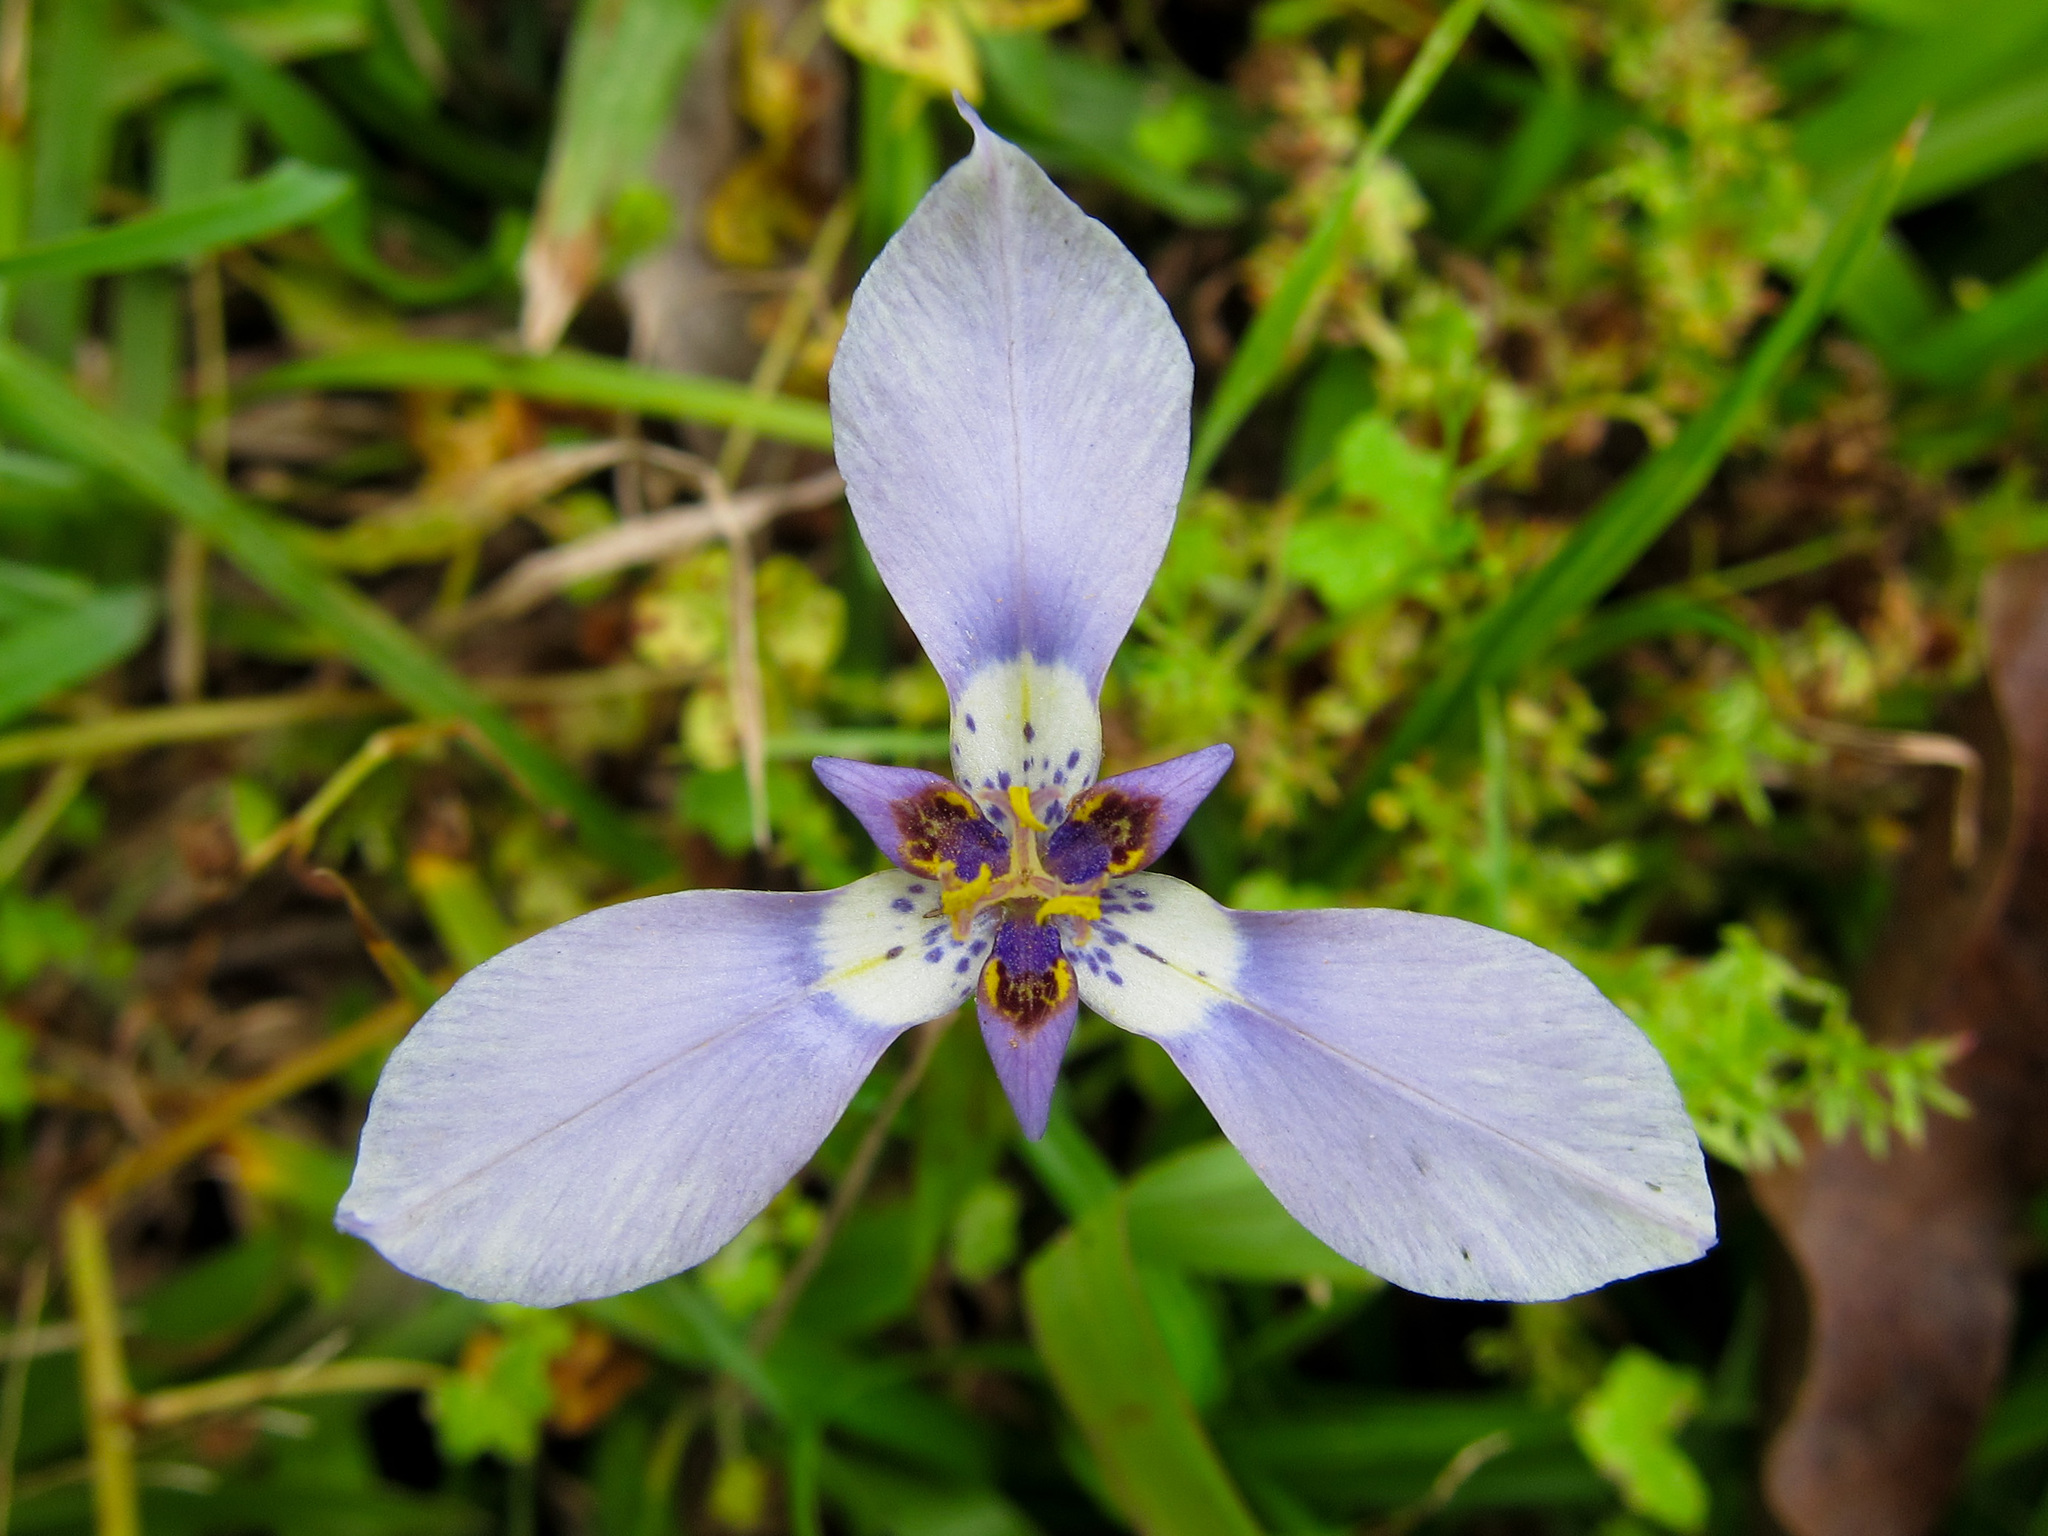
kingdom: Plantae
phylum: Tracheophyta
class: Liliopsida
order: Asparagales
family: Iridaceae
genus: Herbertia
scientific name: Herbertia lahue
